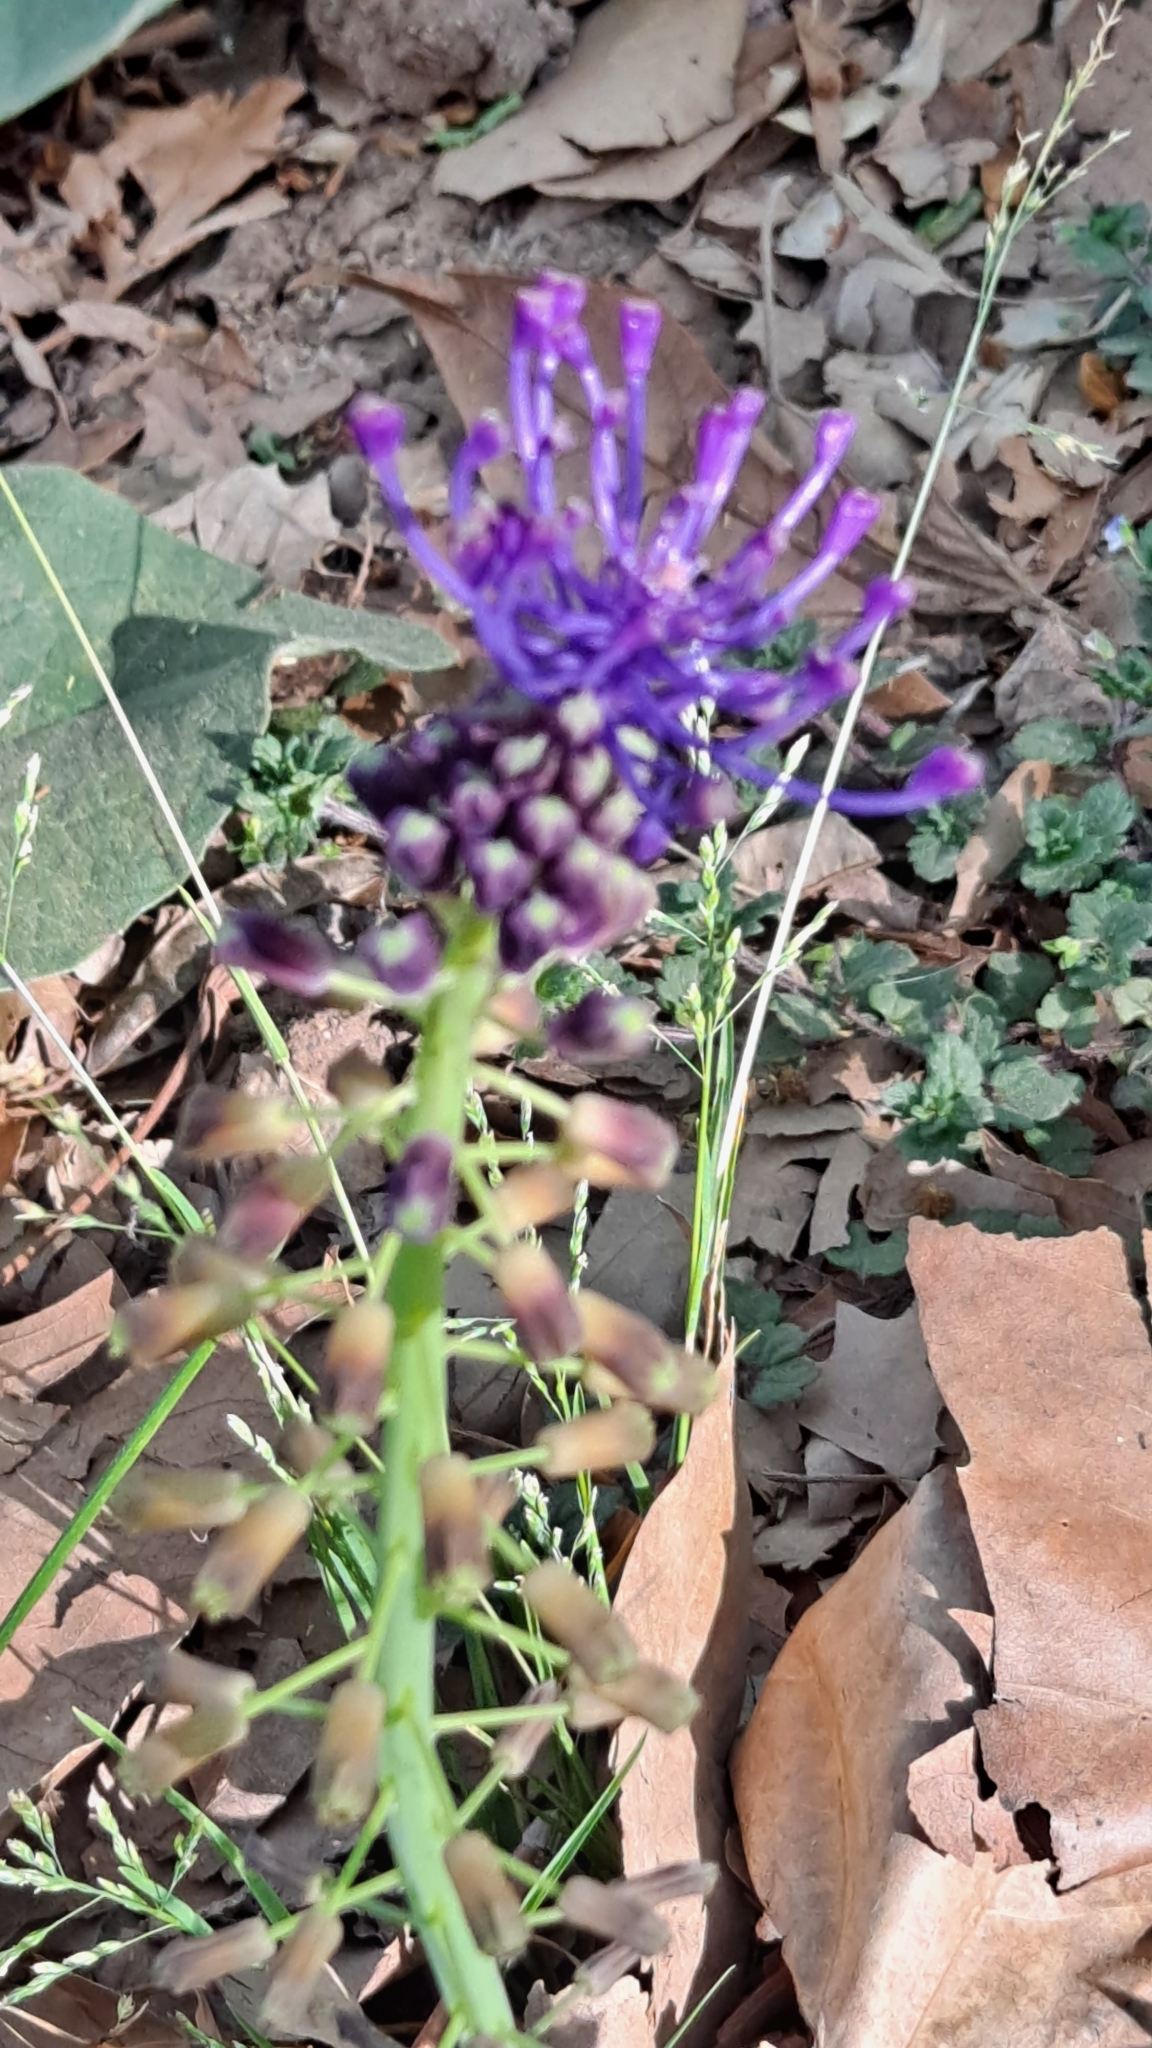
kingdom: Plantae
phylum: Tracheophyta
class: Liliopsida
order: Asparagales
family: Asparagaceae
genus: Muscari
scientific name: Muscari comosum
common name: Tassel hyacinth
